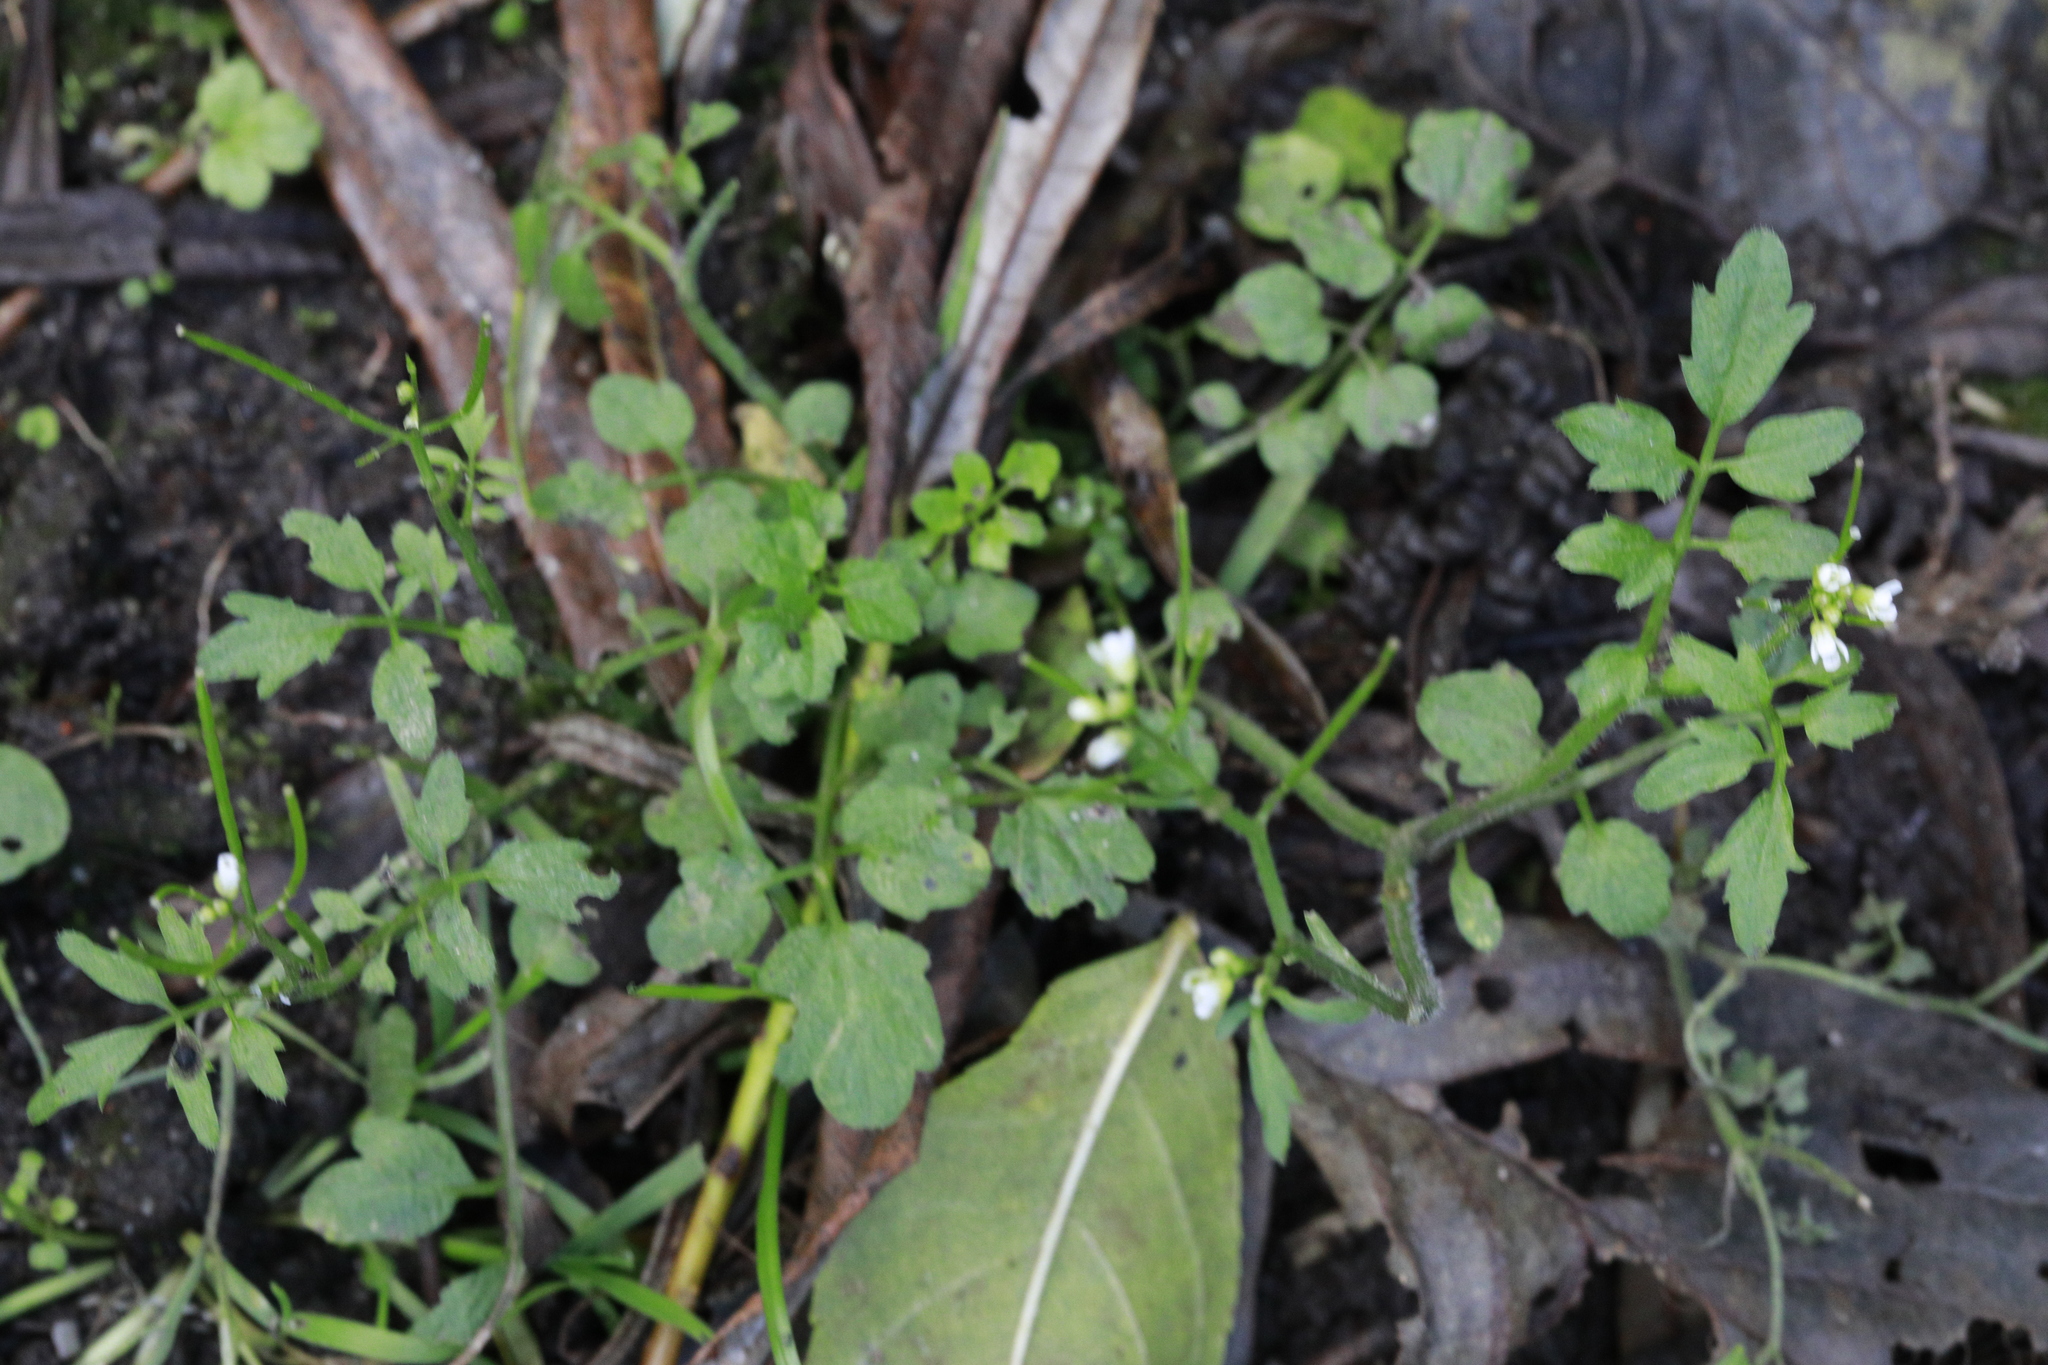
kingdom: Plantae
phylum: Tracheophyta
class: Magnoliopsida
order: Brassicales
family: Brassicaceae
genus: Cardamine
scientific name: Cardamine flexuosa
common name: Woodland bittercress
